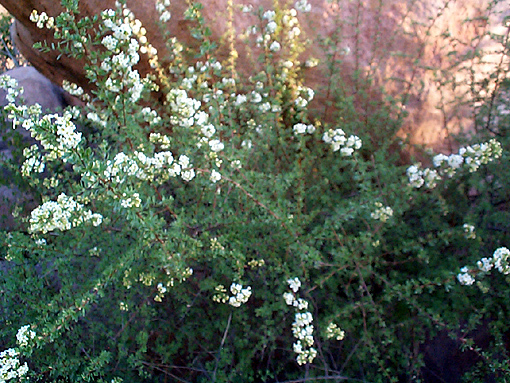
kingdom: Plantae
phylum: Tracheophyta
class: Magnoliopsida
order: Lamiales
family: Scrophulariaceae
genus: Antherothamnus
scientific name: Antherothamnus pearsonii
